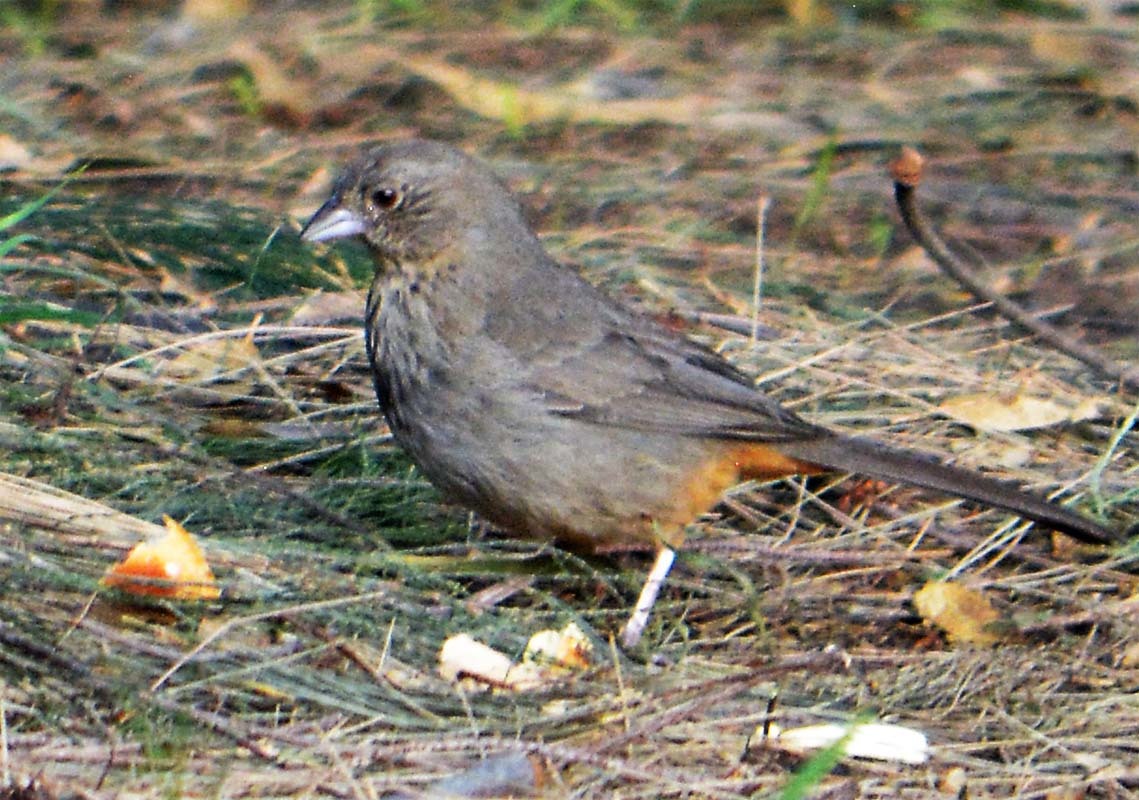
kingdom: Animalia
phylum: Chordata
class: Aves
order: Passeriformes
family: Passerellidae
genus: Melozone
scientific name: Melozone fusca
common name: Canyon towhee
